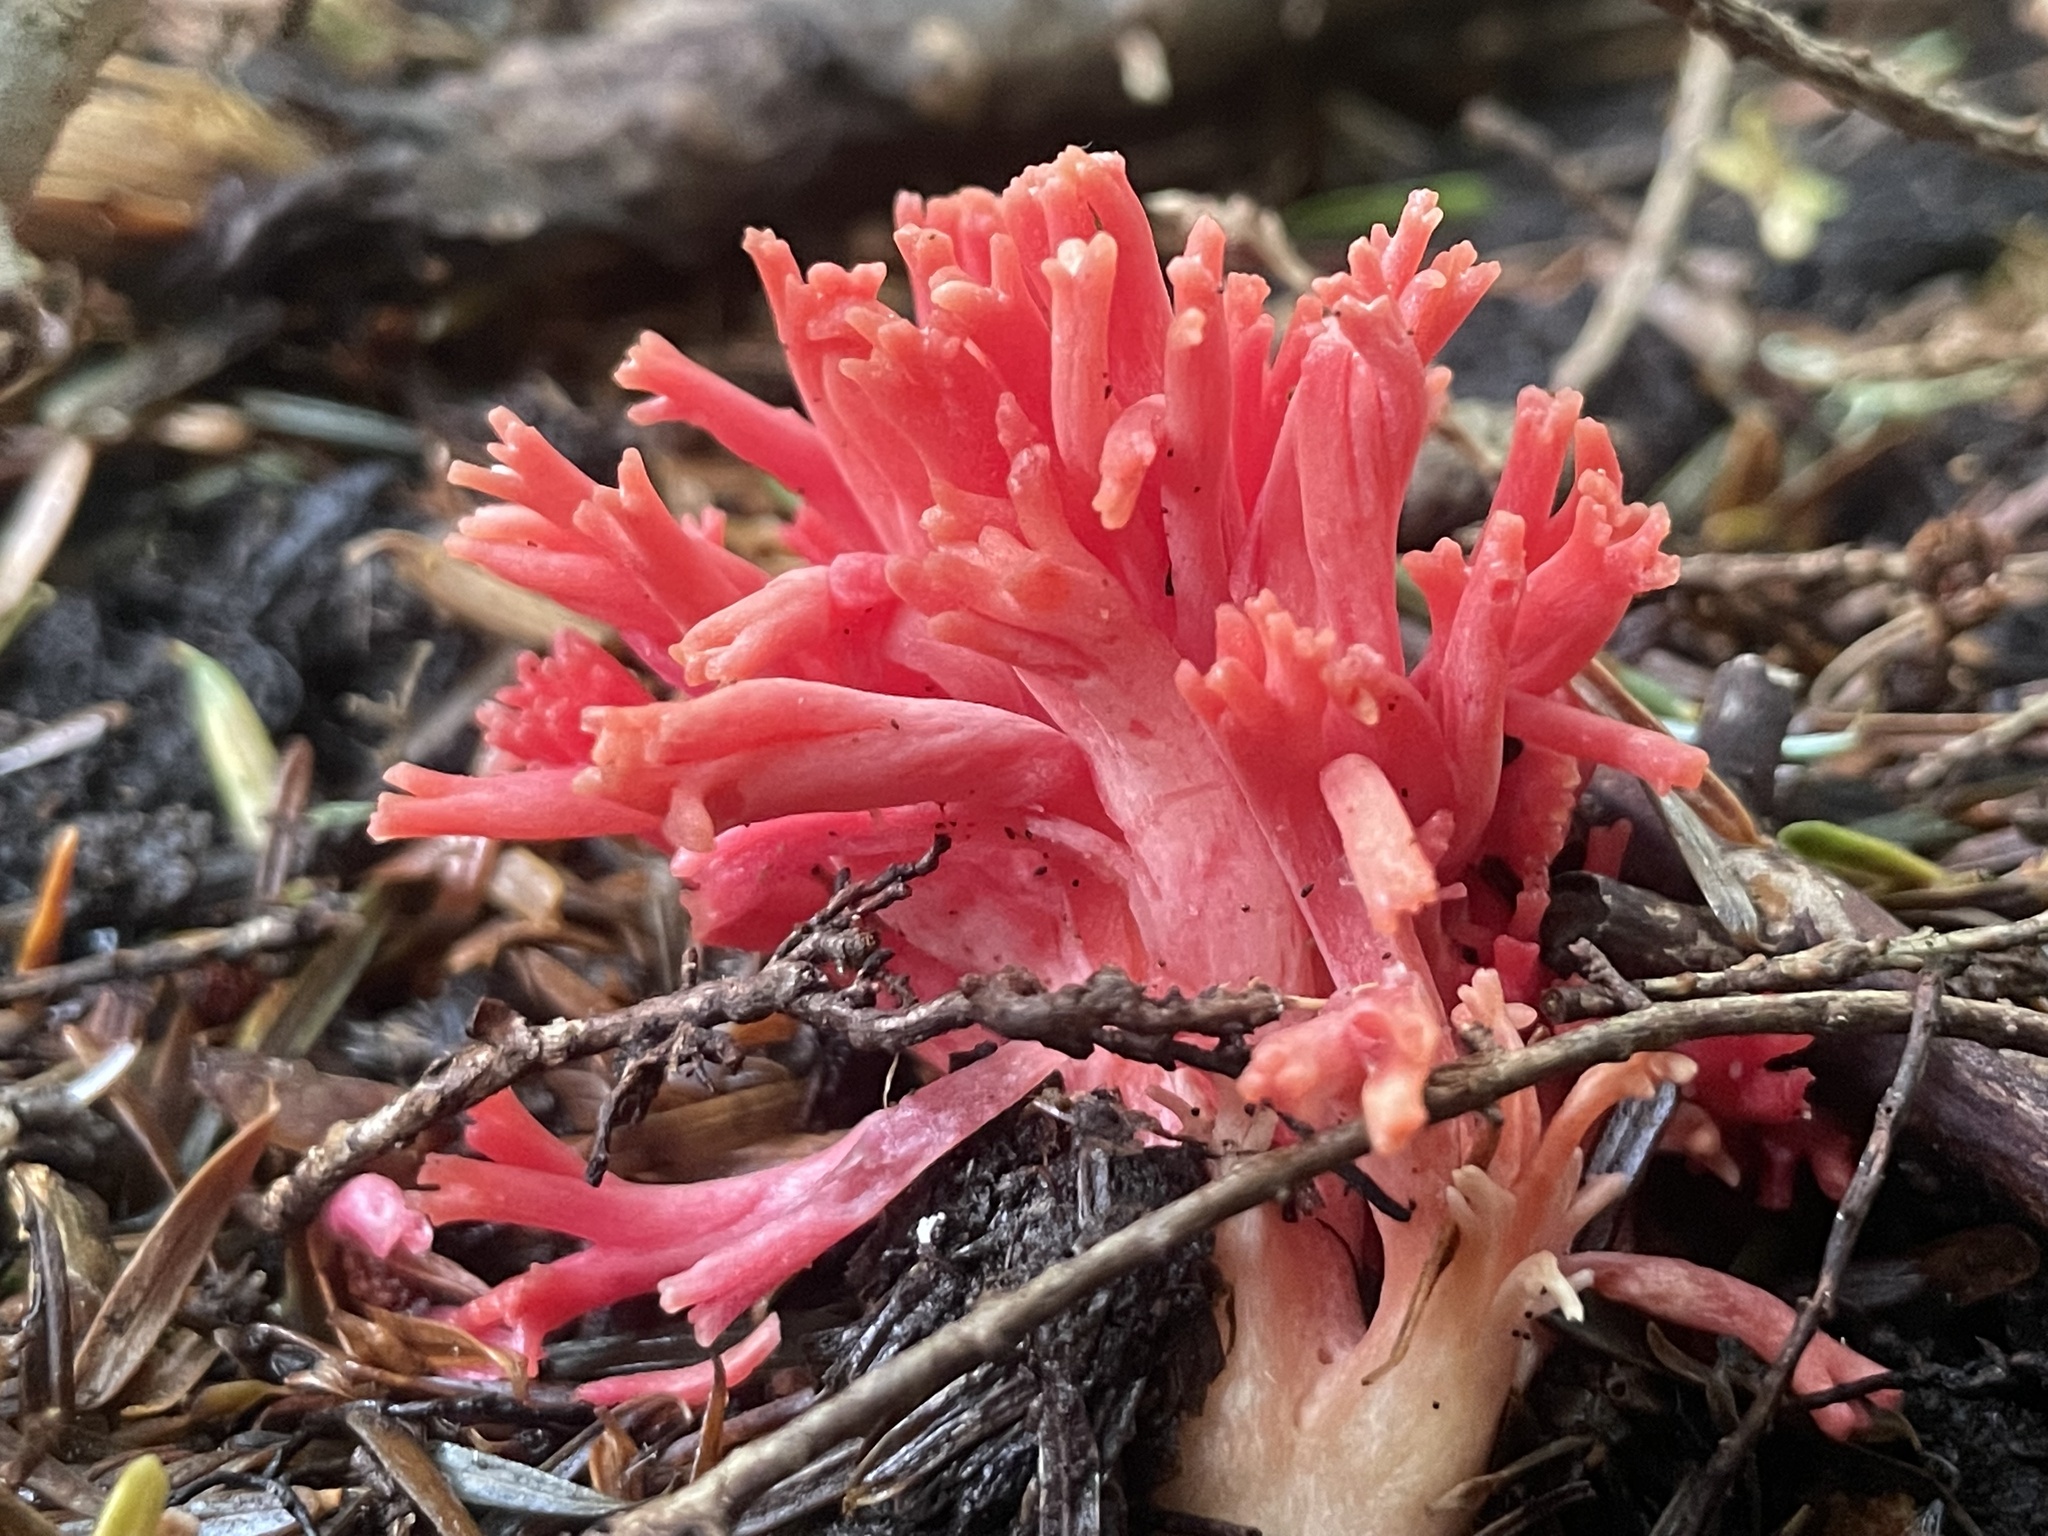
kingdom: Fungi
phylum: Basidiomycota
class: Agaricomycetes
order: Gomphales
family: Gomphaceae
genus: Ramaria
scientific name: Ramaria araiospora
